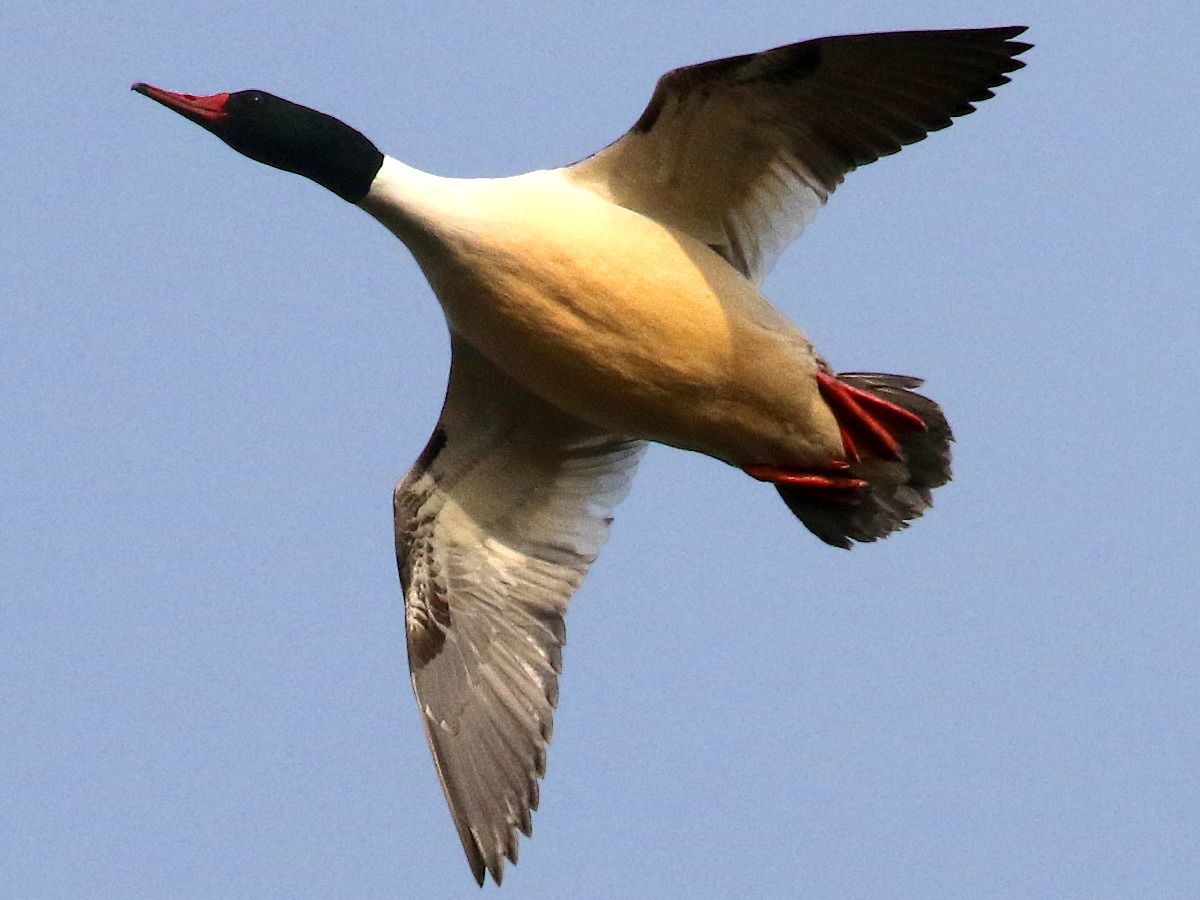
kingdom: Animalia
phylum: Chordata
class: Aves
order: Anseriformes
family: Anatidae
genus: Mergus
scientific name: Mergus merganser
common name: Common merganser
